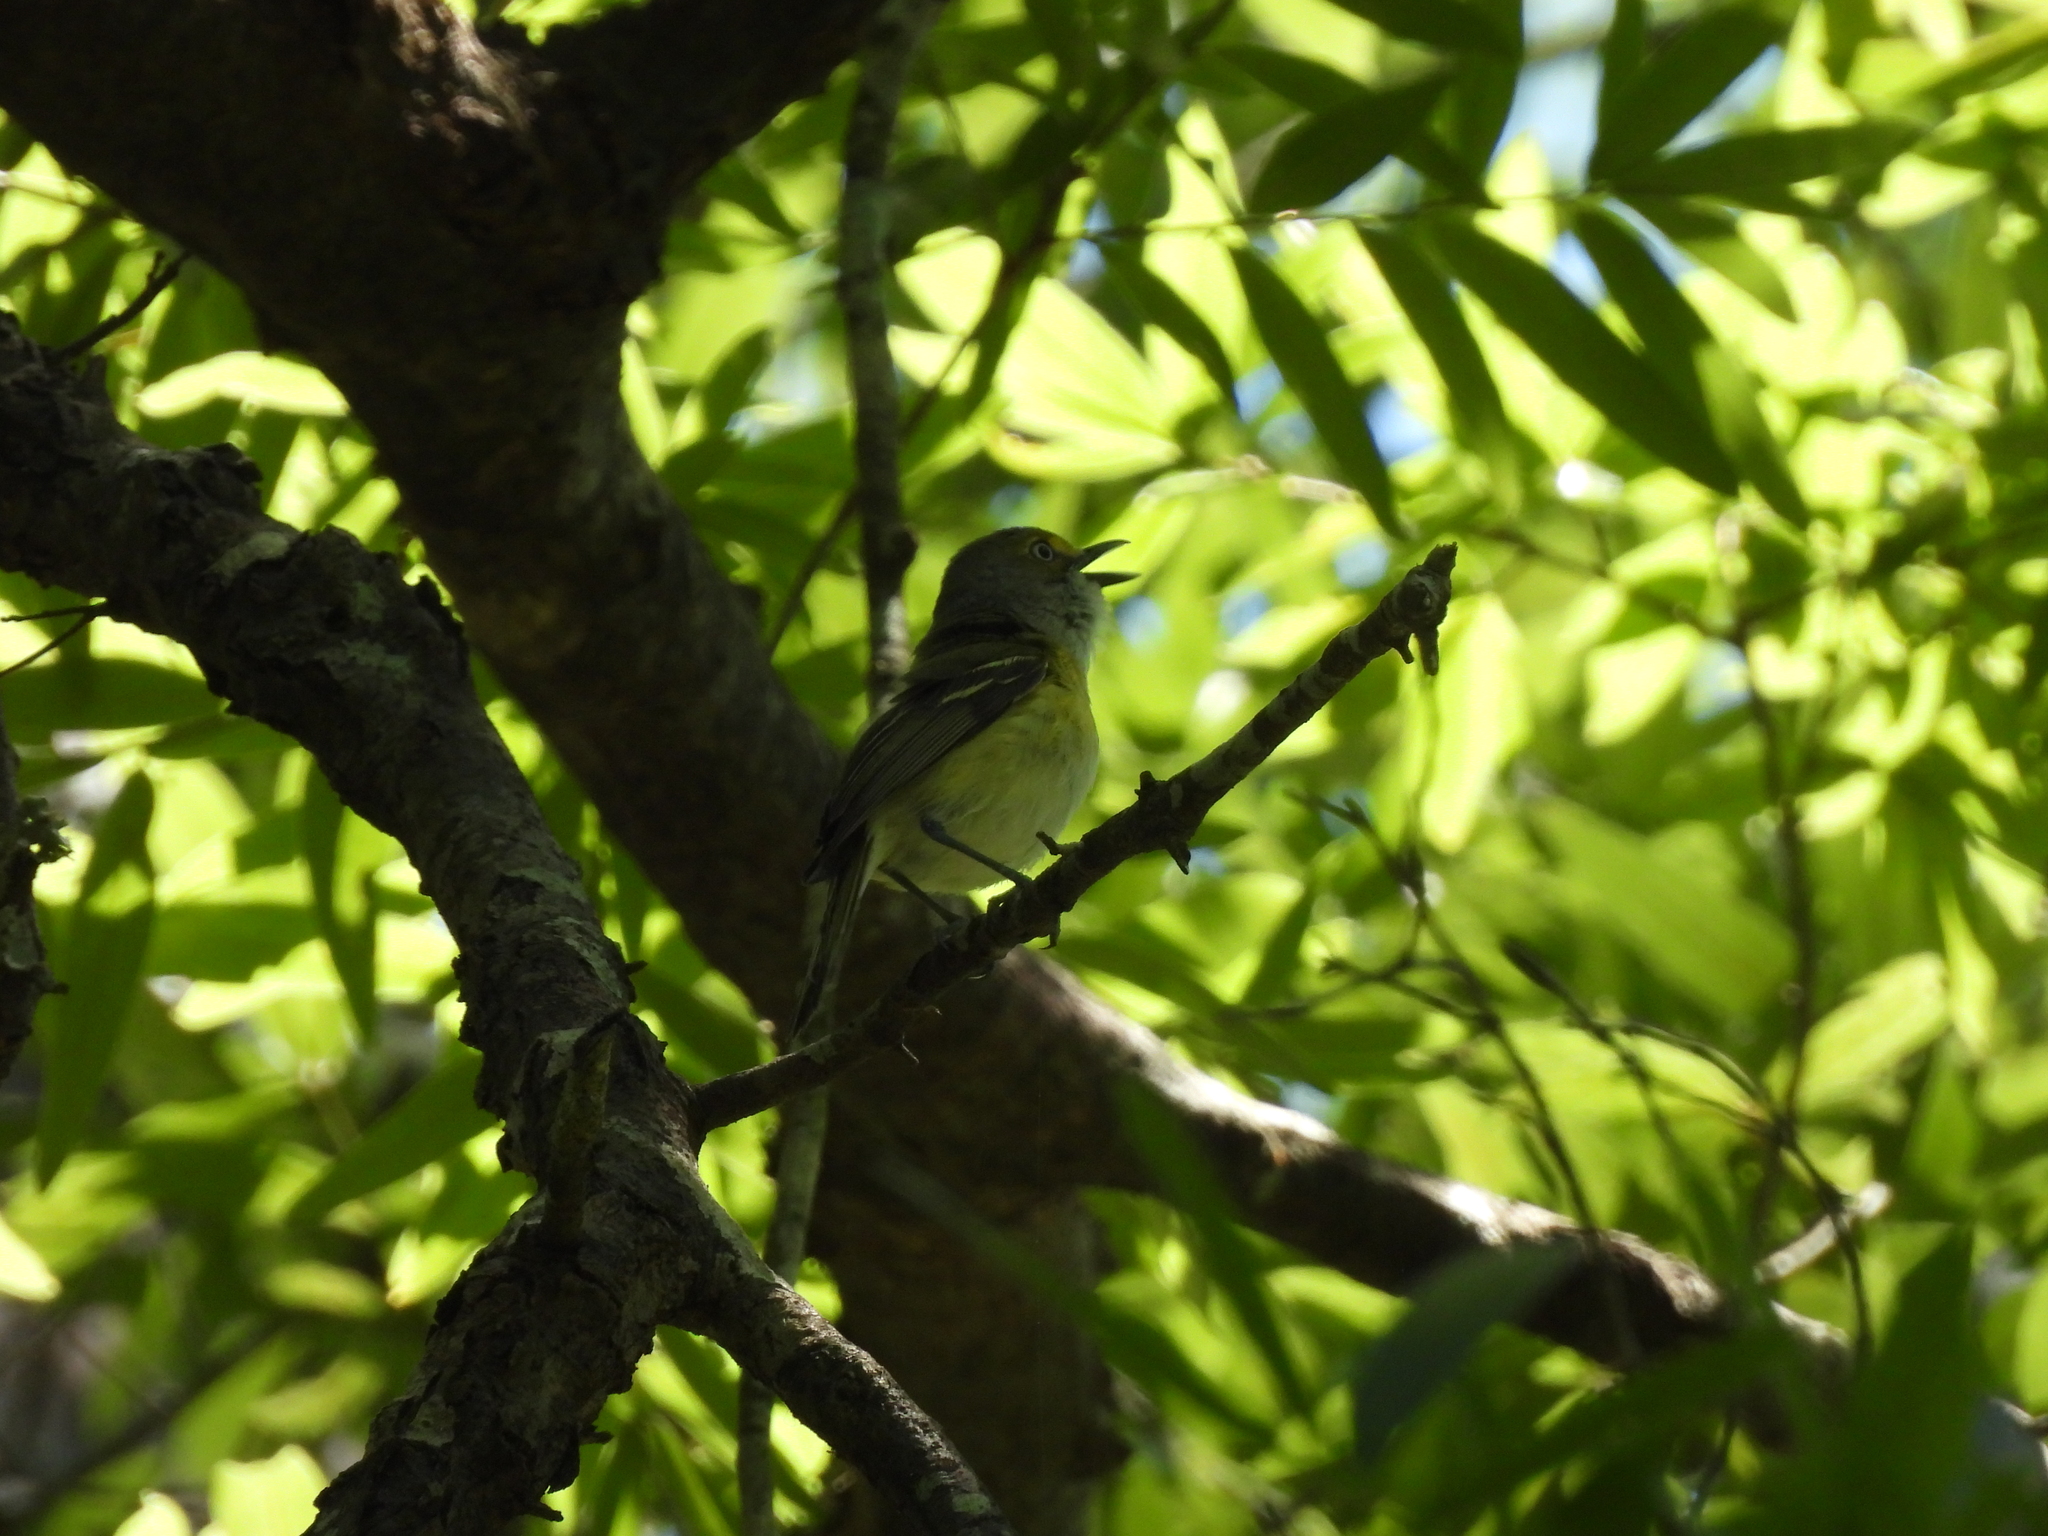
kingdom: Animalia
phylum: Chordata
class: Aves
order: Passeriformes
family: Vireonidae
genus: Vireo
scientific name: Vireo griseus
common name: White-eyed vireo
